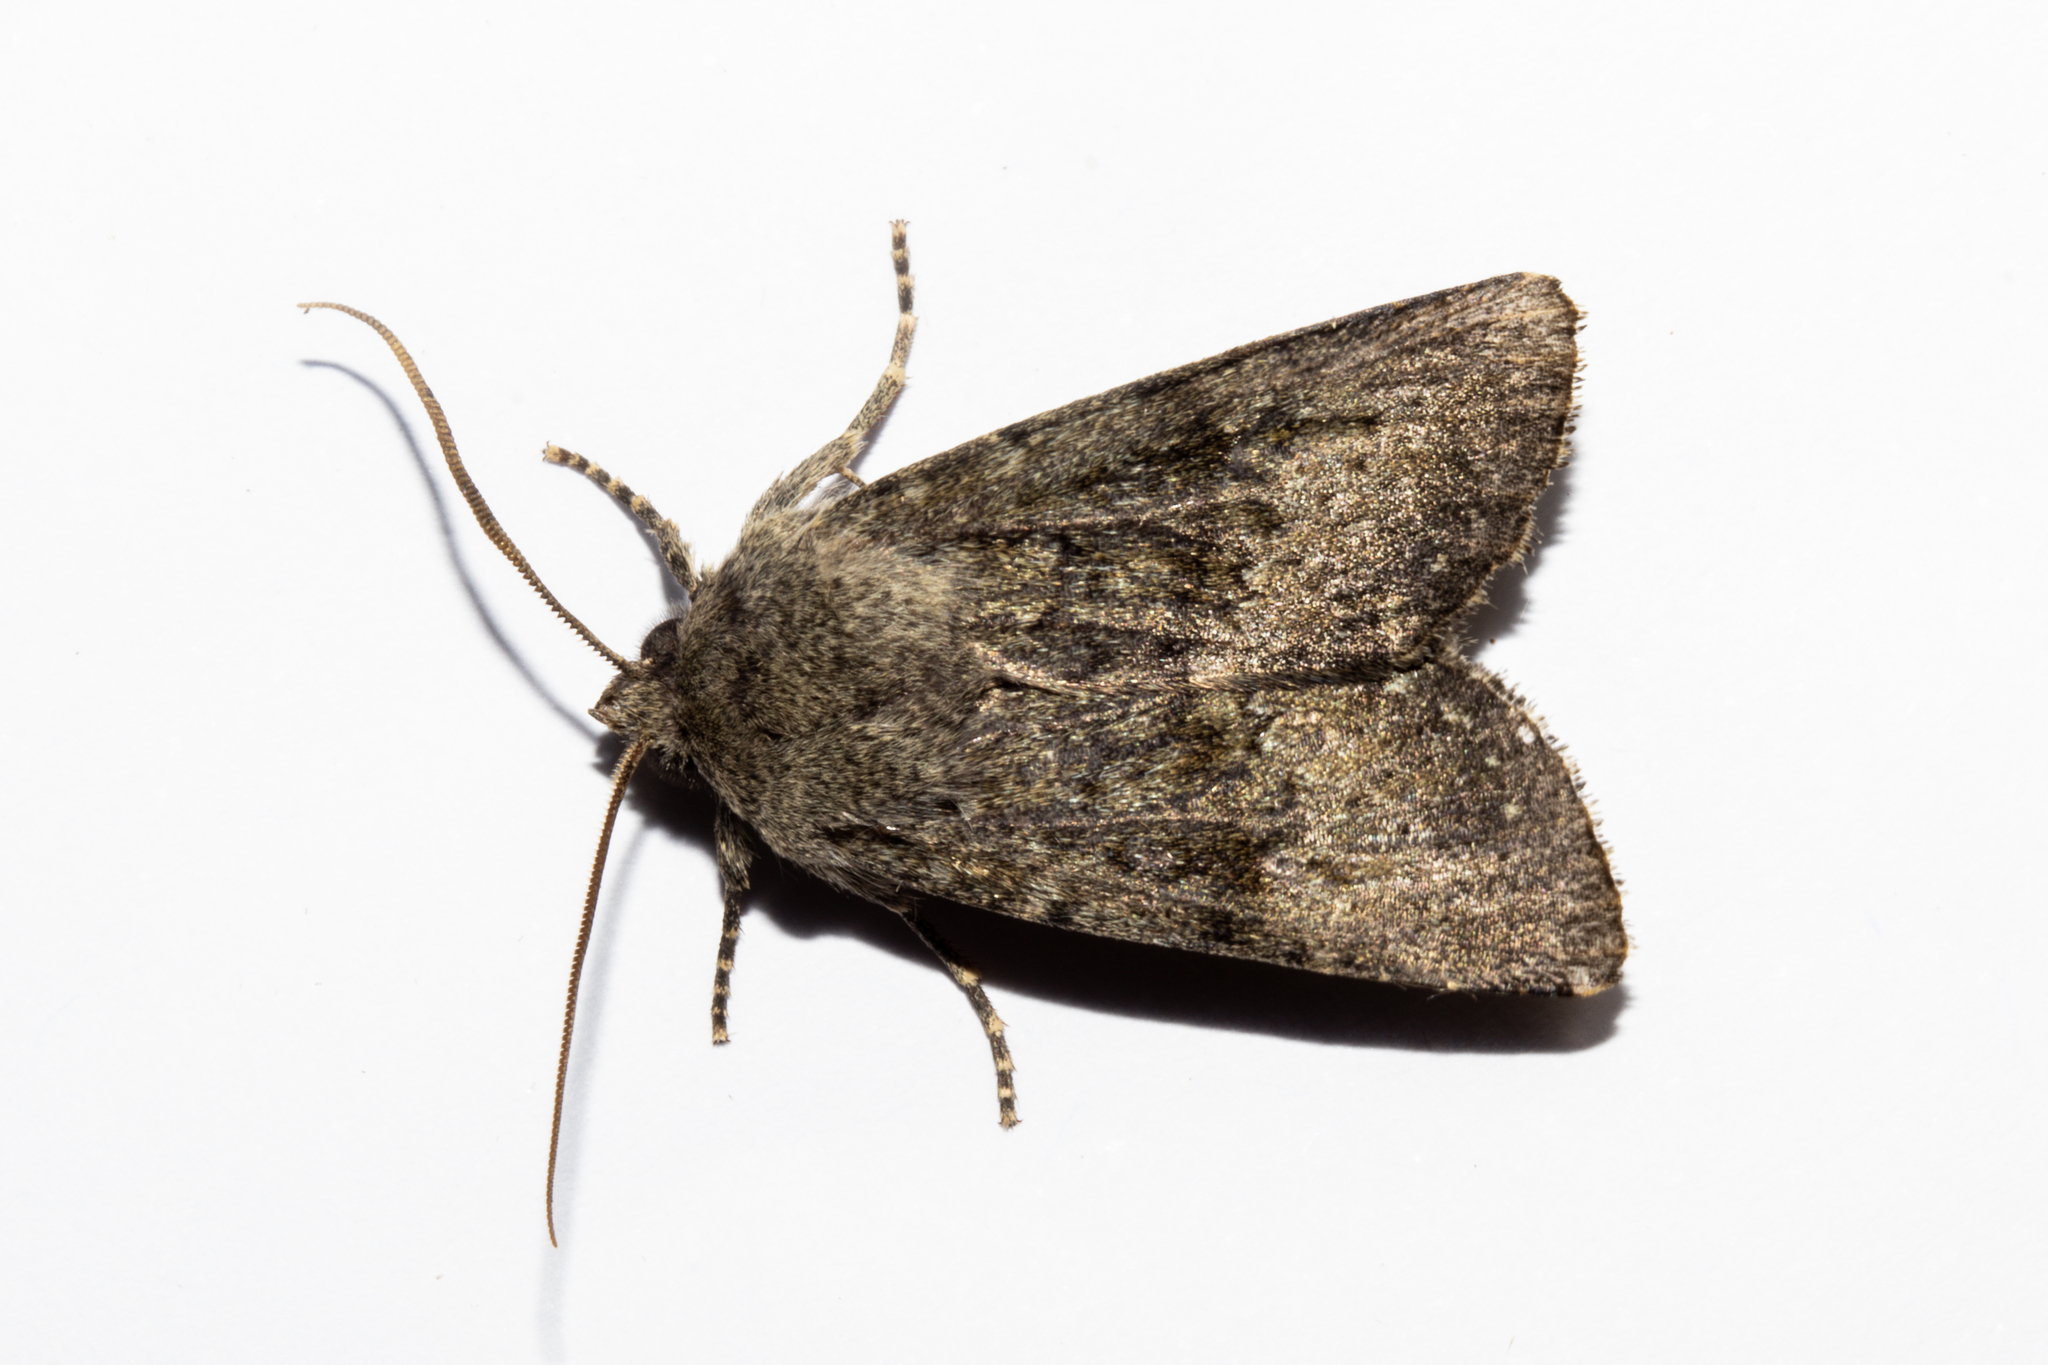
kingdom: Animalia
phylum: Arthropoda
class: Insecta
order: Lepidoptera
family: Noctuidae
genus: Ichneutica
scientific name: Ichneutica moderata
